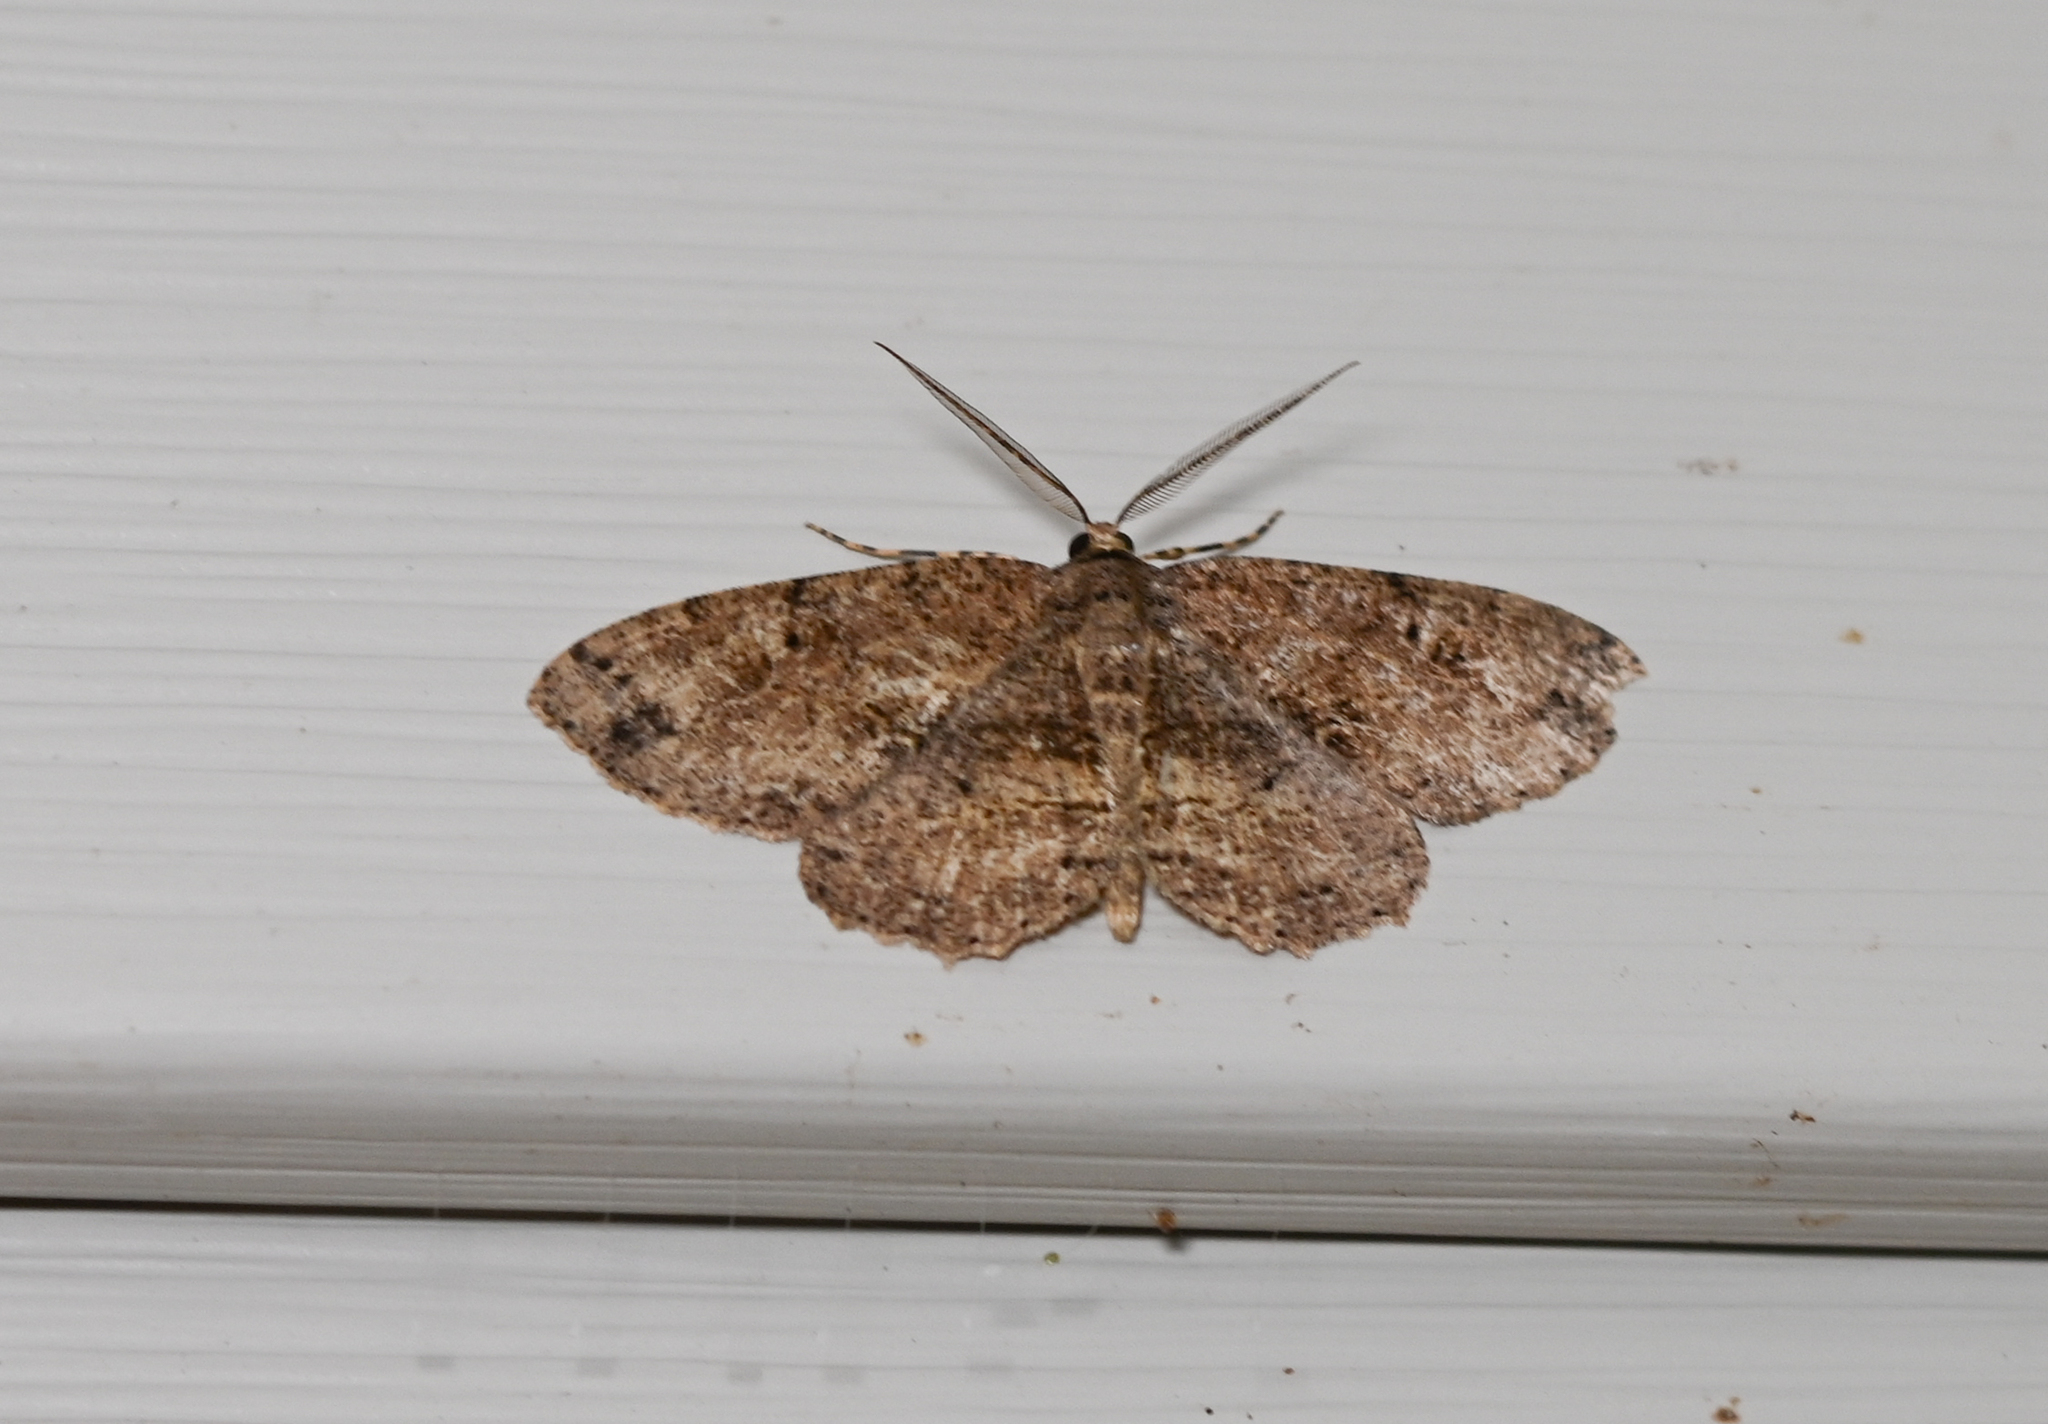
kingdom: Animalia
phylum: Arthropoda
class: Insecta
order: Lepidoptera
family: Geometridae
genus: Melanolophia
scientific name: Melanolophia canadaria
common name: Canadian melanolophia
